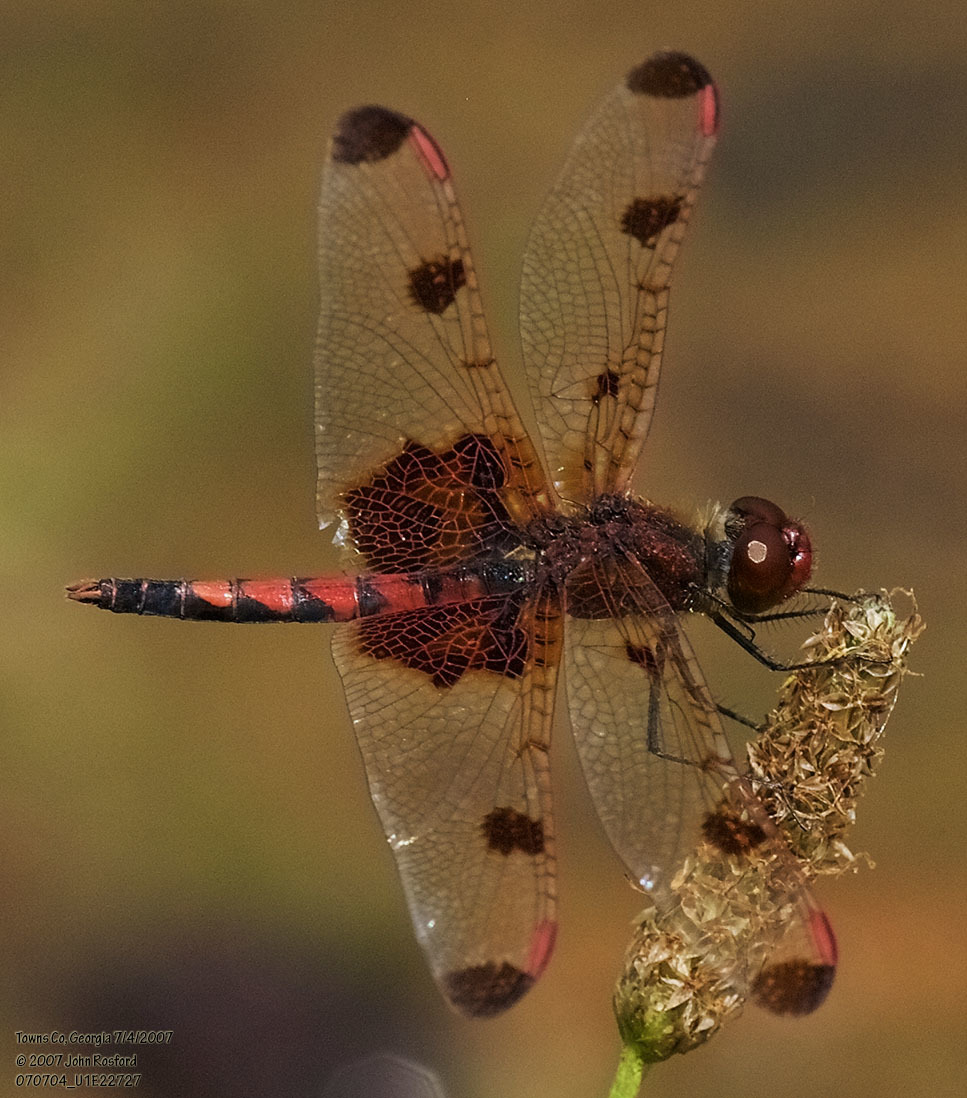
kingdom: Animalia
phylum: Arthropoda
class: Insecta
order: Odonata
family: Libellulidae
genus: Celithemis
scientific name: Celithemis elisa
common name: Calico pennant
